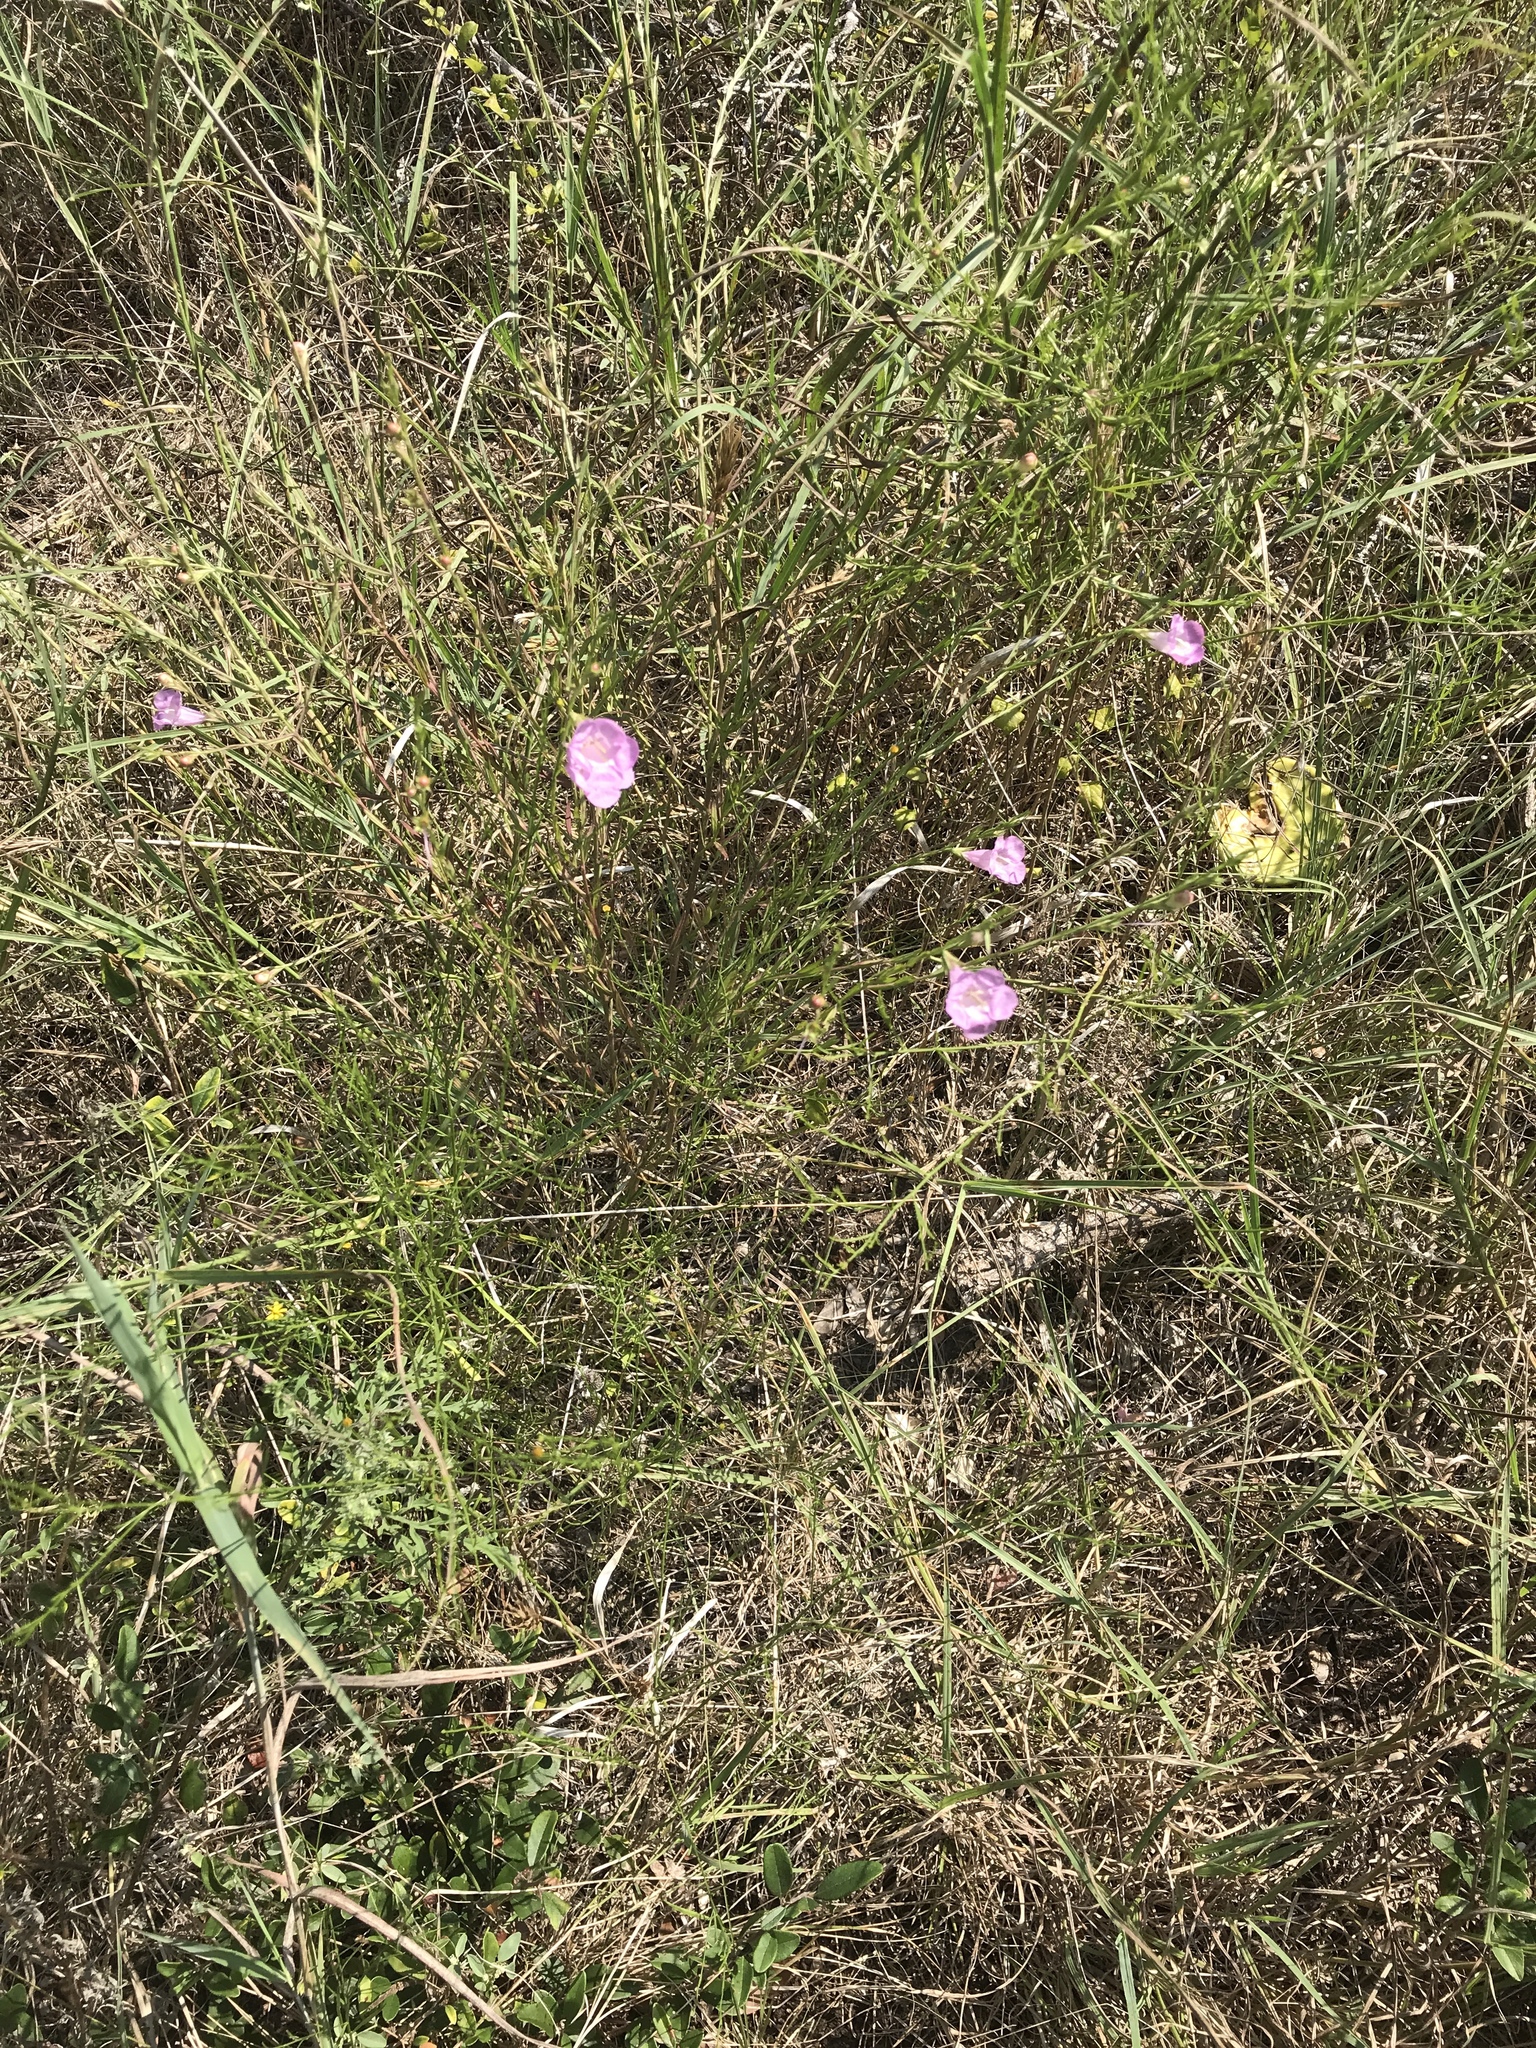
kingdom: Plantae
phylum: Tracheophyta
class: Magnoliopsida
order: Lamiales
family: Orobanchaceae
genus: Agalinis
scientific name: Agalinis heterophylla
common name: Prairie agalinis
